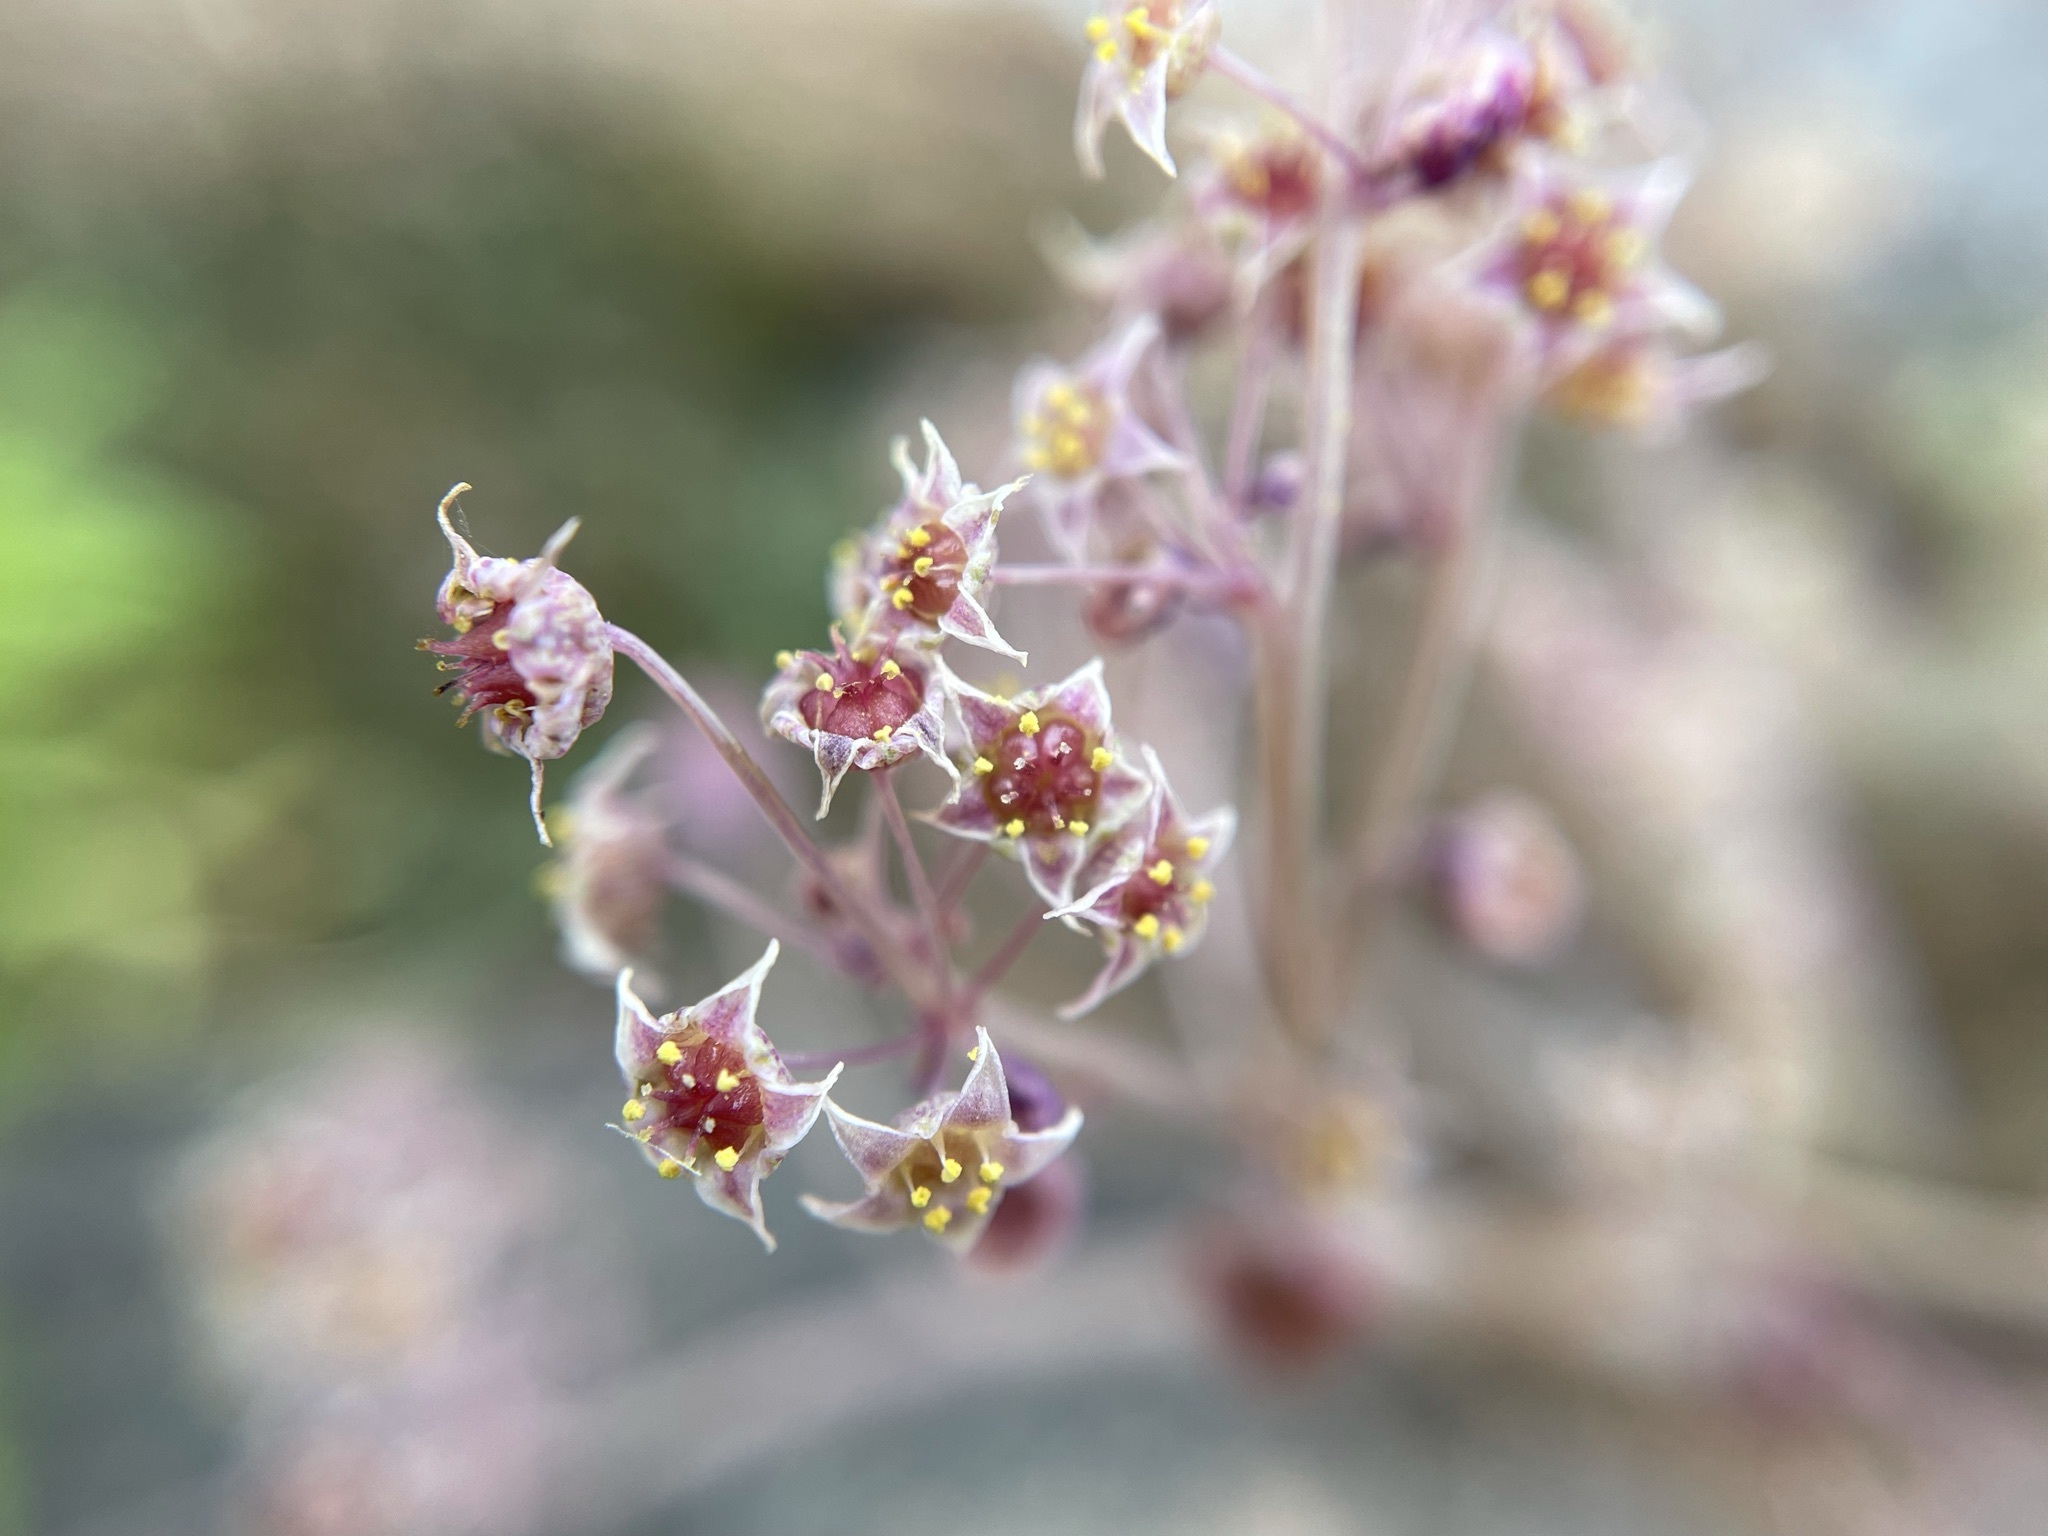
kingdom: Plantae
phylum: Tracheophyta
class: Magnoliopsida
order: Saxifragales
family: Crassulaceae
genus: Crassula
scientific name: Crassula nemorosa
